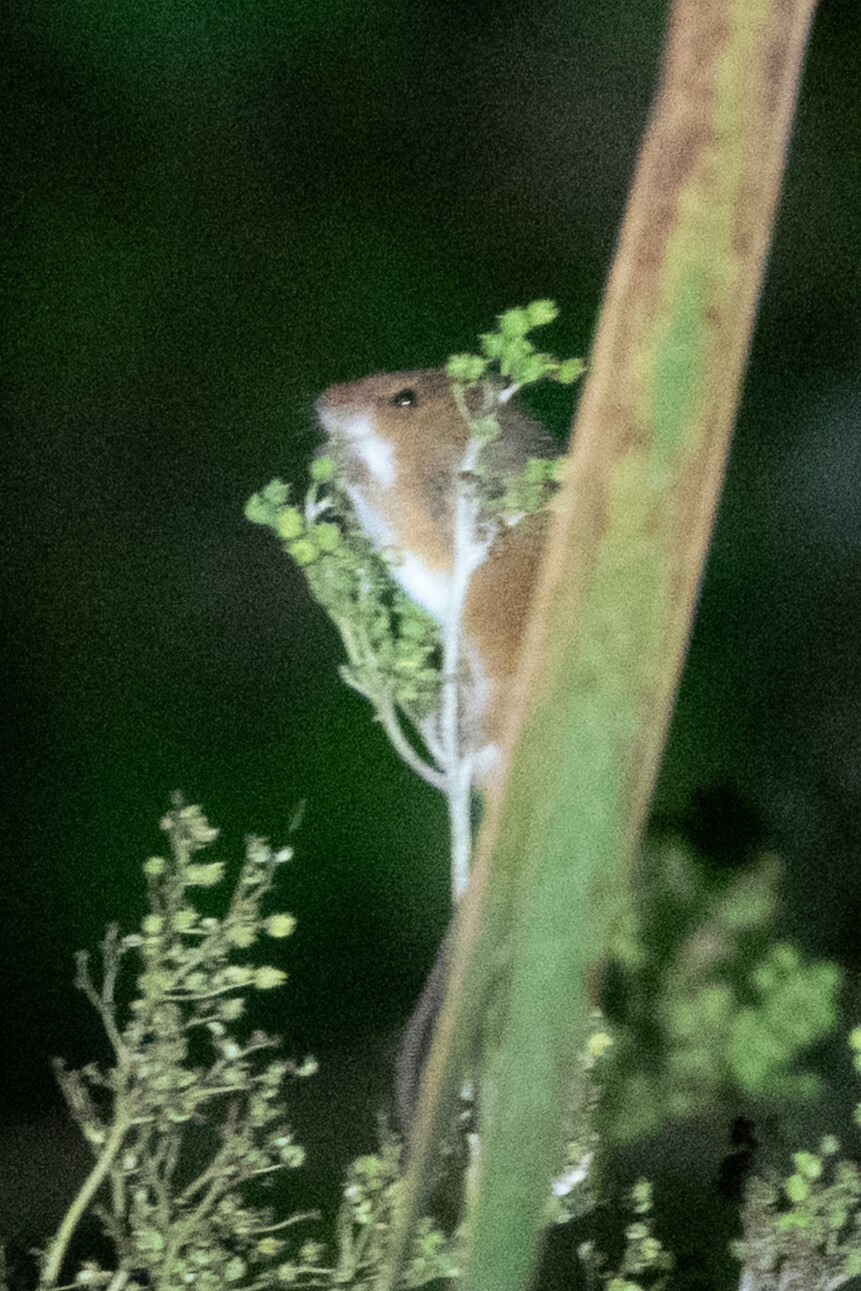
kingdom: Animalia
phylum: Chordata
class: Mammalia
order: Rodentia
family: Muridae
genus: Micromys
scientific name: Micromys minutus
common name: Harvest mouse
